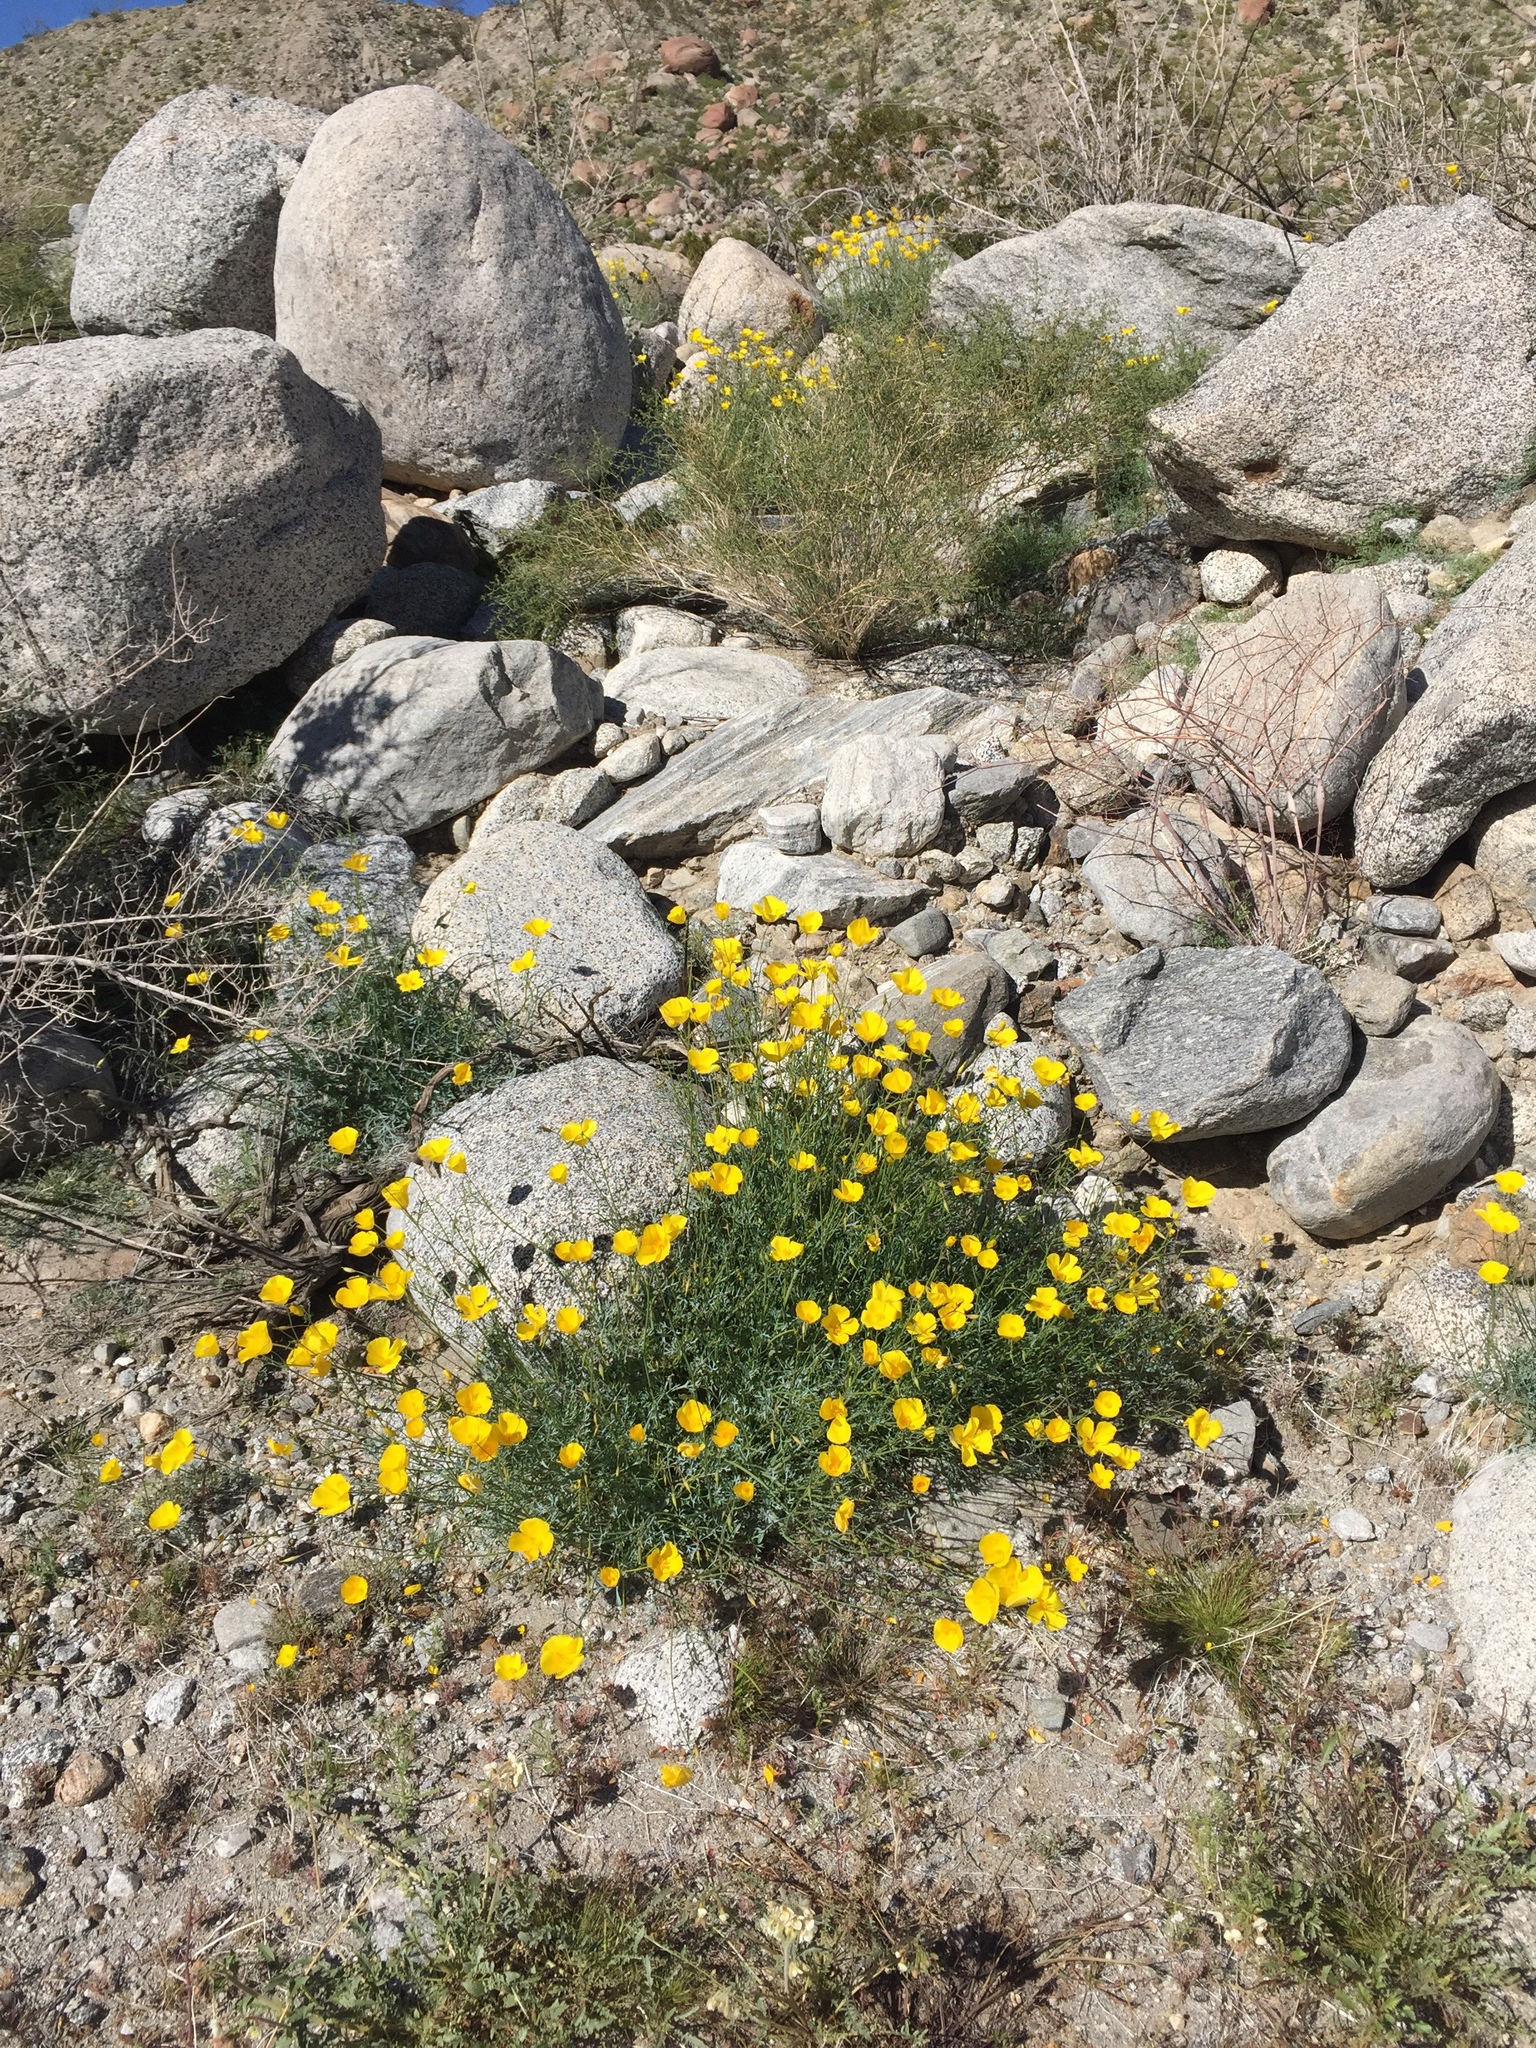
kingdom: Plantae
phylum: Tracheophyta
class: Magnoliopsida
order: Ranunculales
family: Papaveraceae
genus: Eschscholzia
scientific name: Eschscholzia parishii
